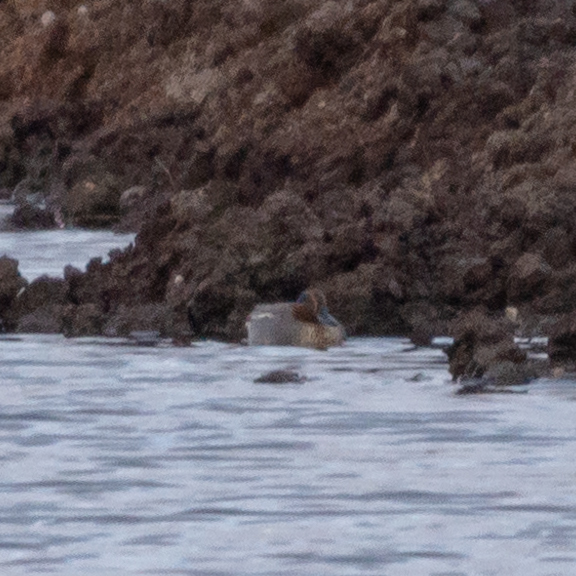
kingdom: Animalia
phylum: Chordata
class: Aves
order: Anseriformes
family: Anatidae
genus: Anas
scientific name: Anas crecca
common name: Eurasian teal
